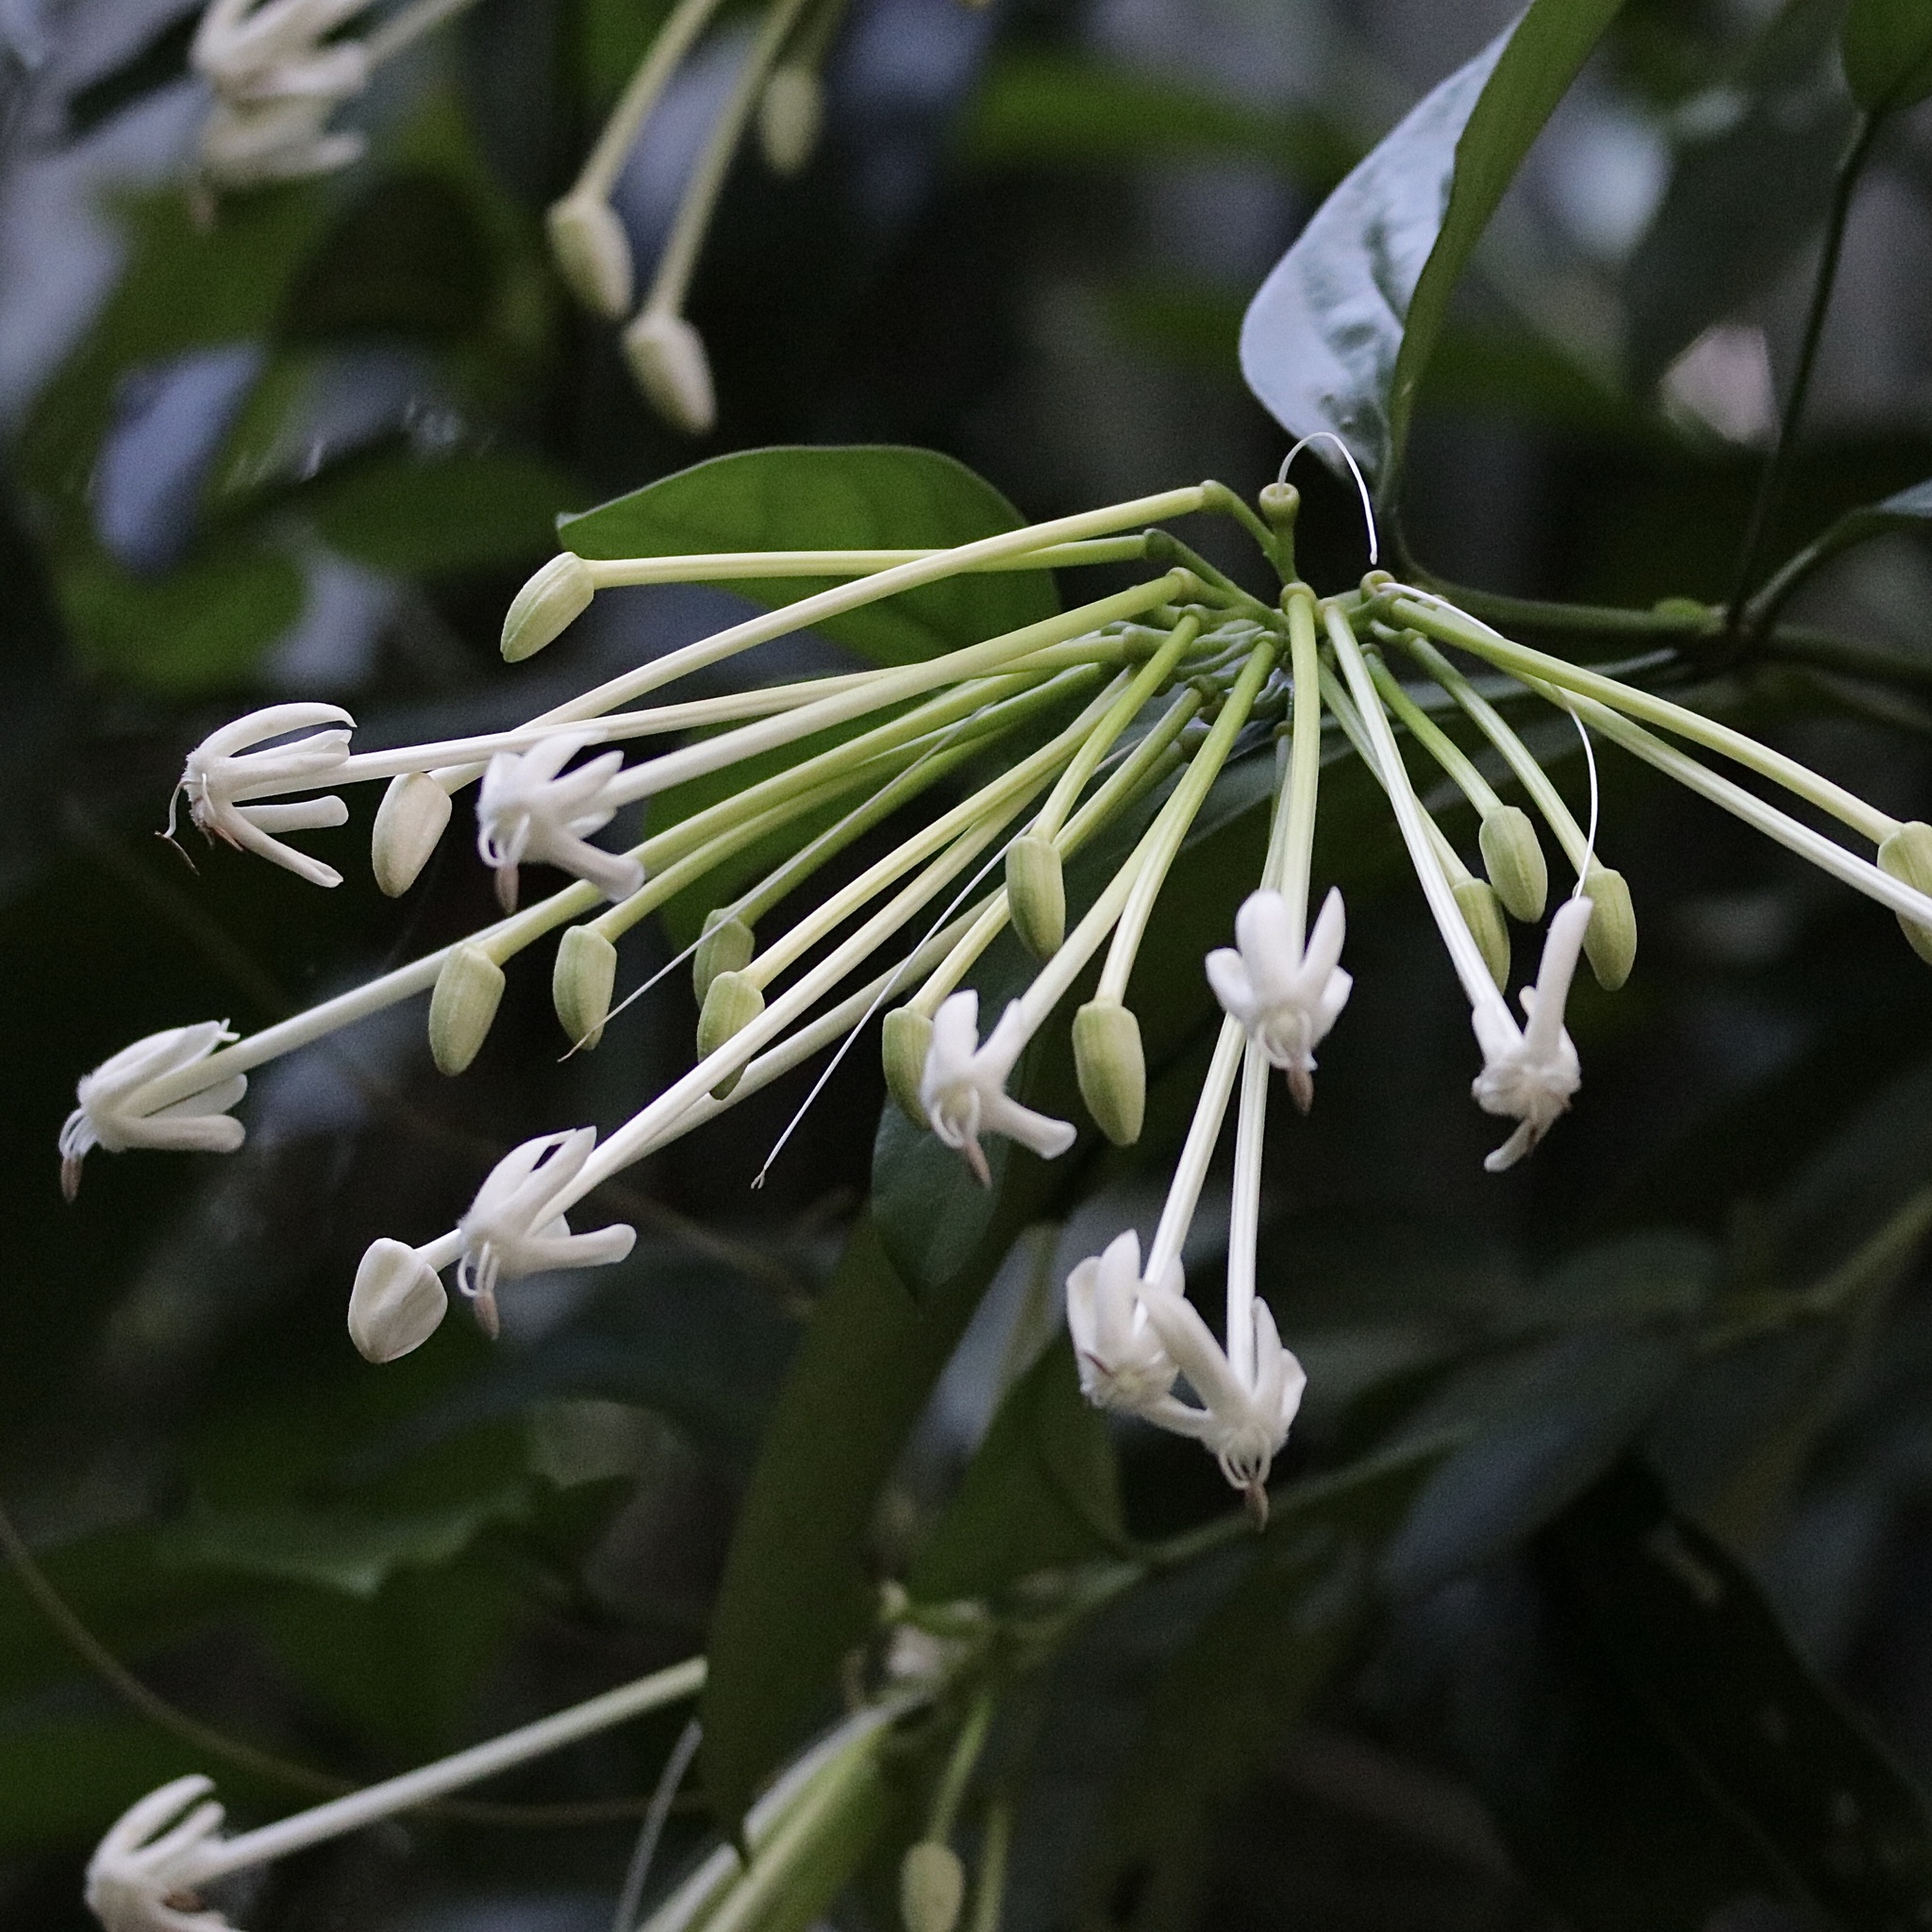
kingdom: Plantae
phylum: Tracheophyta
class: Magnoliopsida
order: Gentianales
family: Rubiaceae
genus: Posoqueria
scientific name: Posoqueria latifolia
